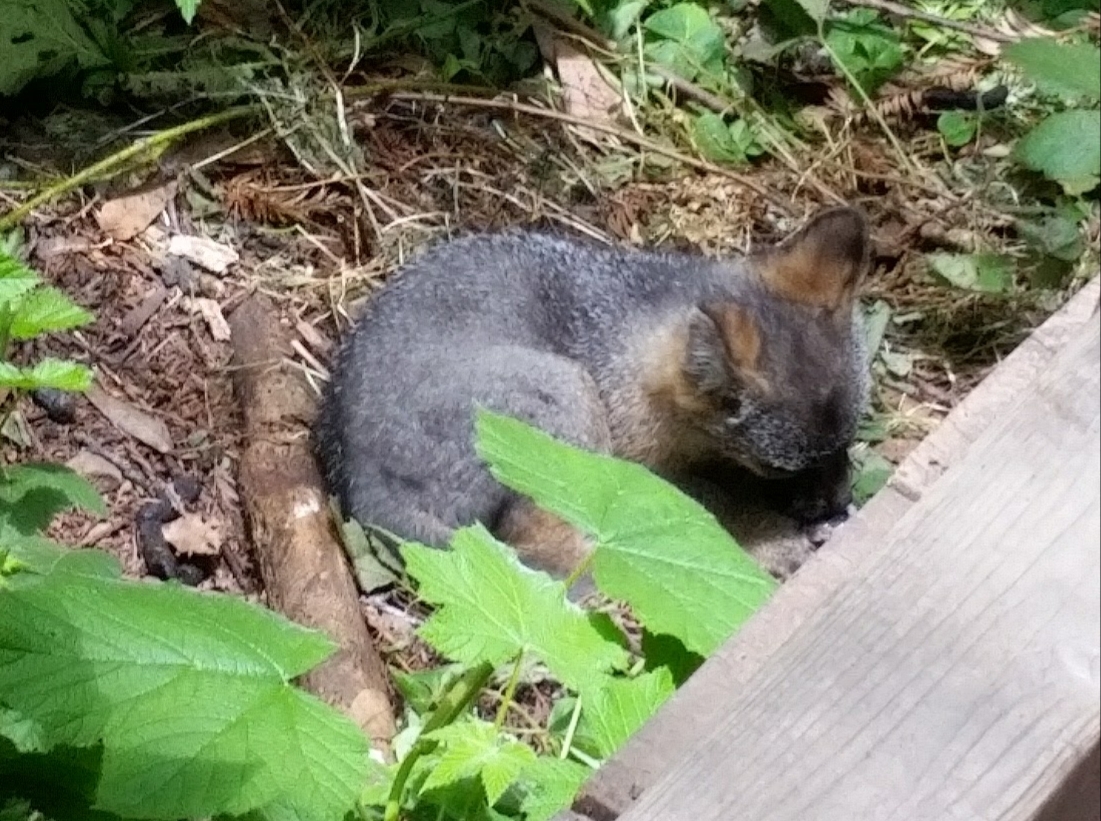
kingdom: Animalia
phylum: Chordata
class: Mammalia
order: Carnivora
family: Canidae
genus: Urocyon
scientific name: Urocyon cinereoargenteus
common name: Gray fox
